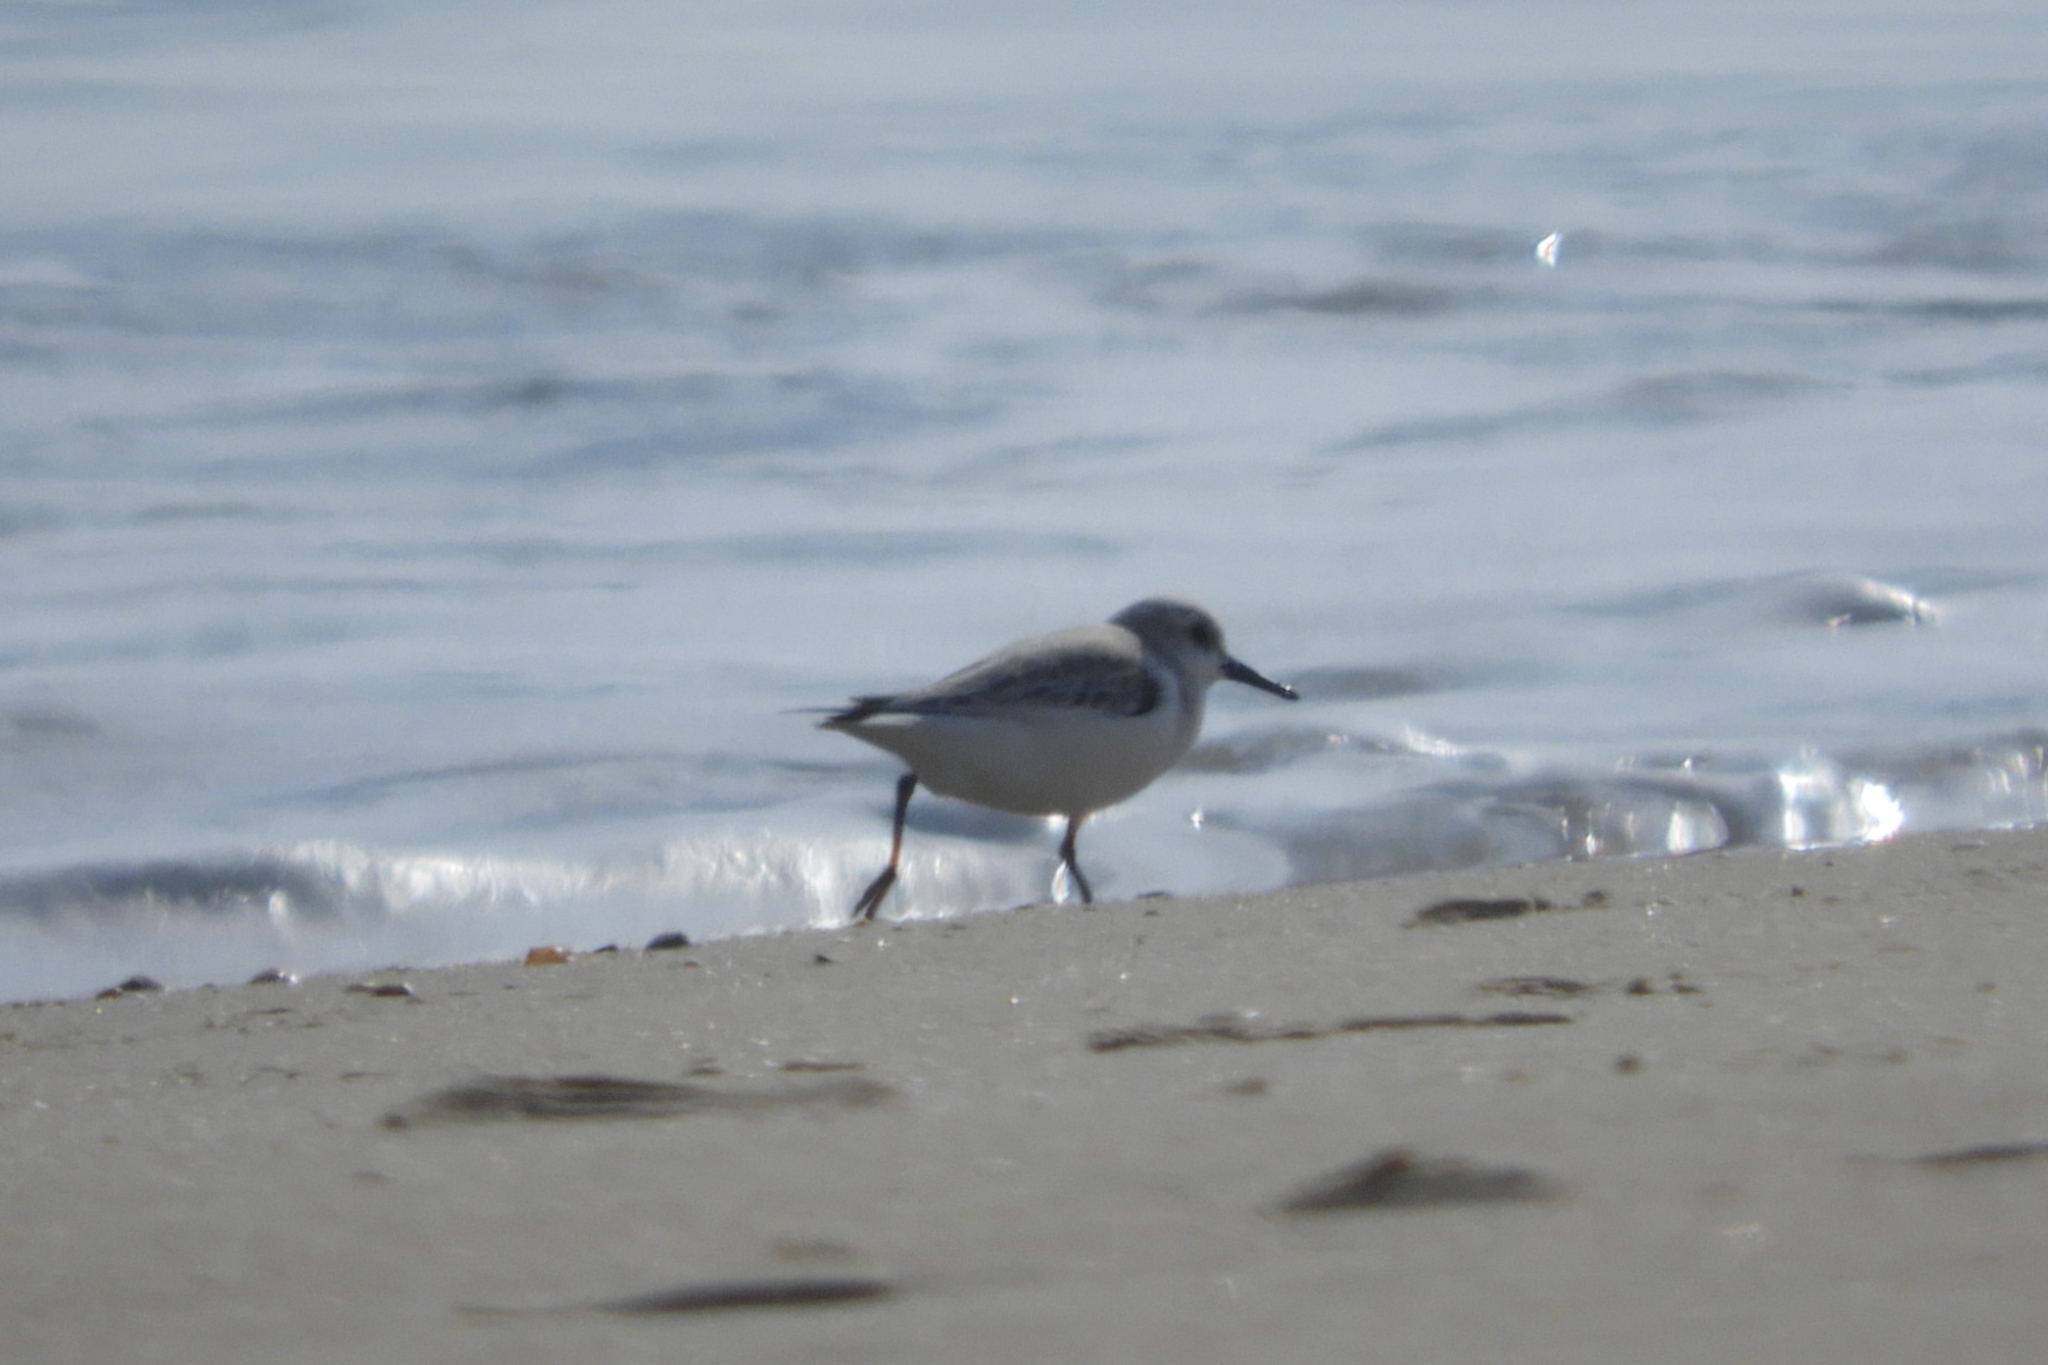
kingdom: Animalia
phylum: Chordata
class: Aves
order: Charadriiformes
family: Scolopacidae
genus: Calidris
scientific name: Calidris alba
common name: Sanderling
